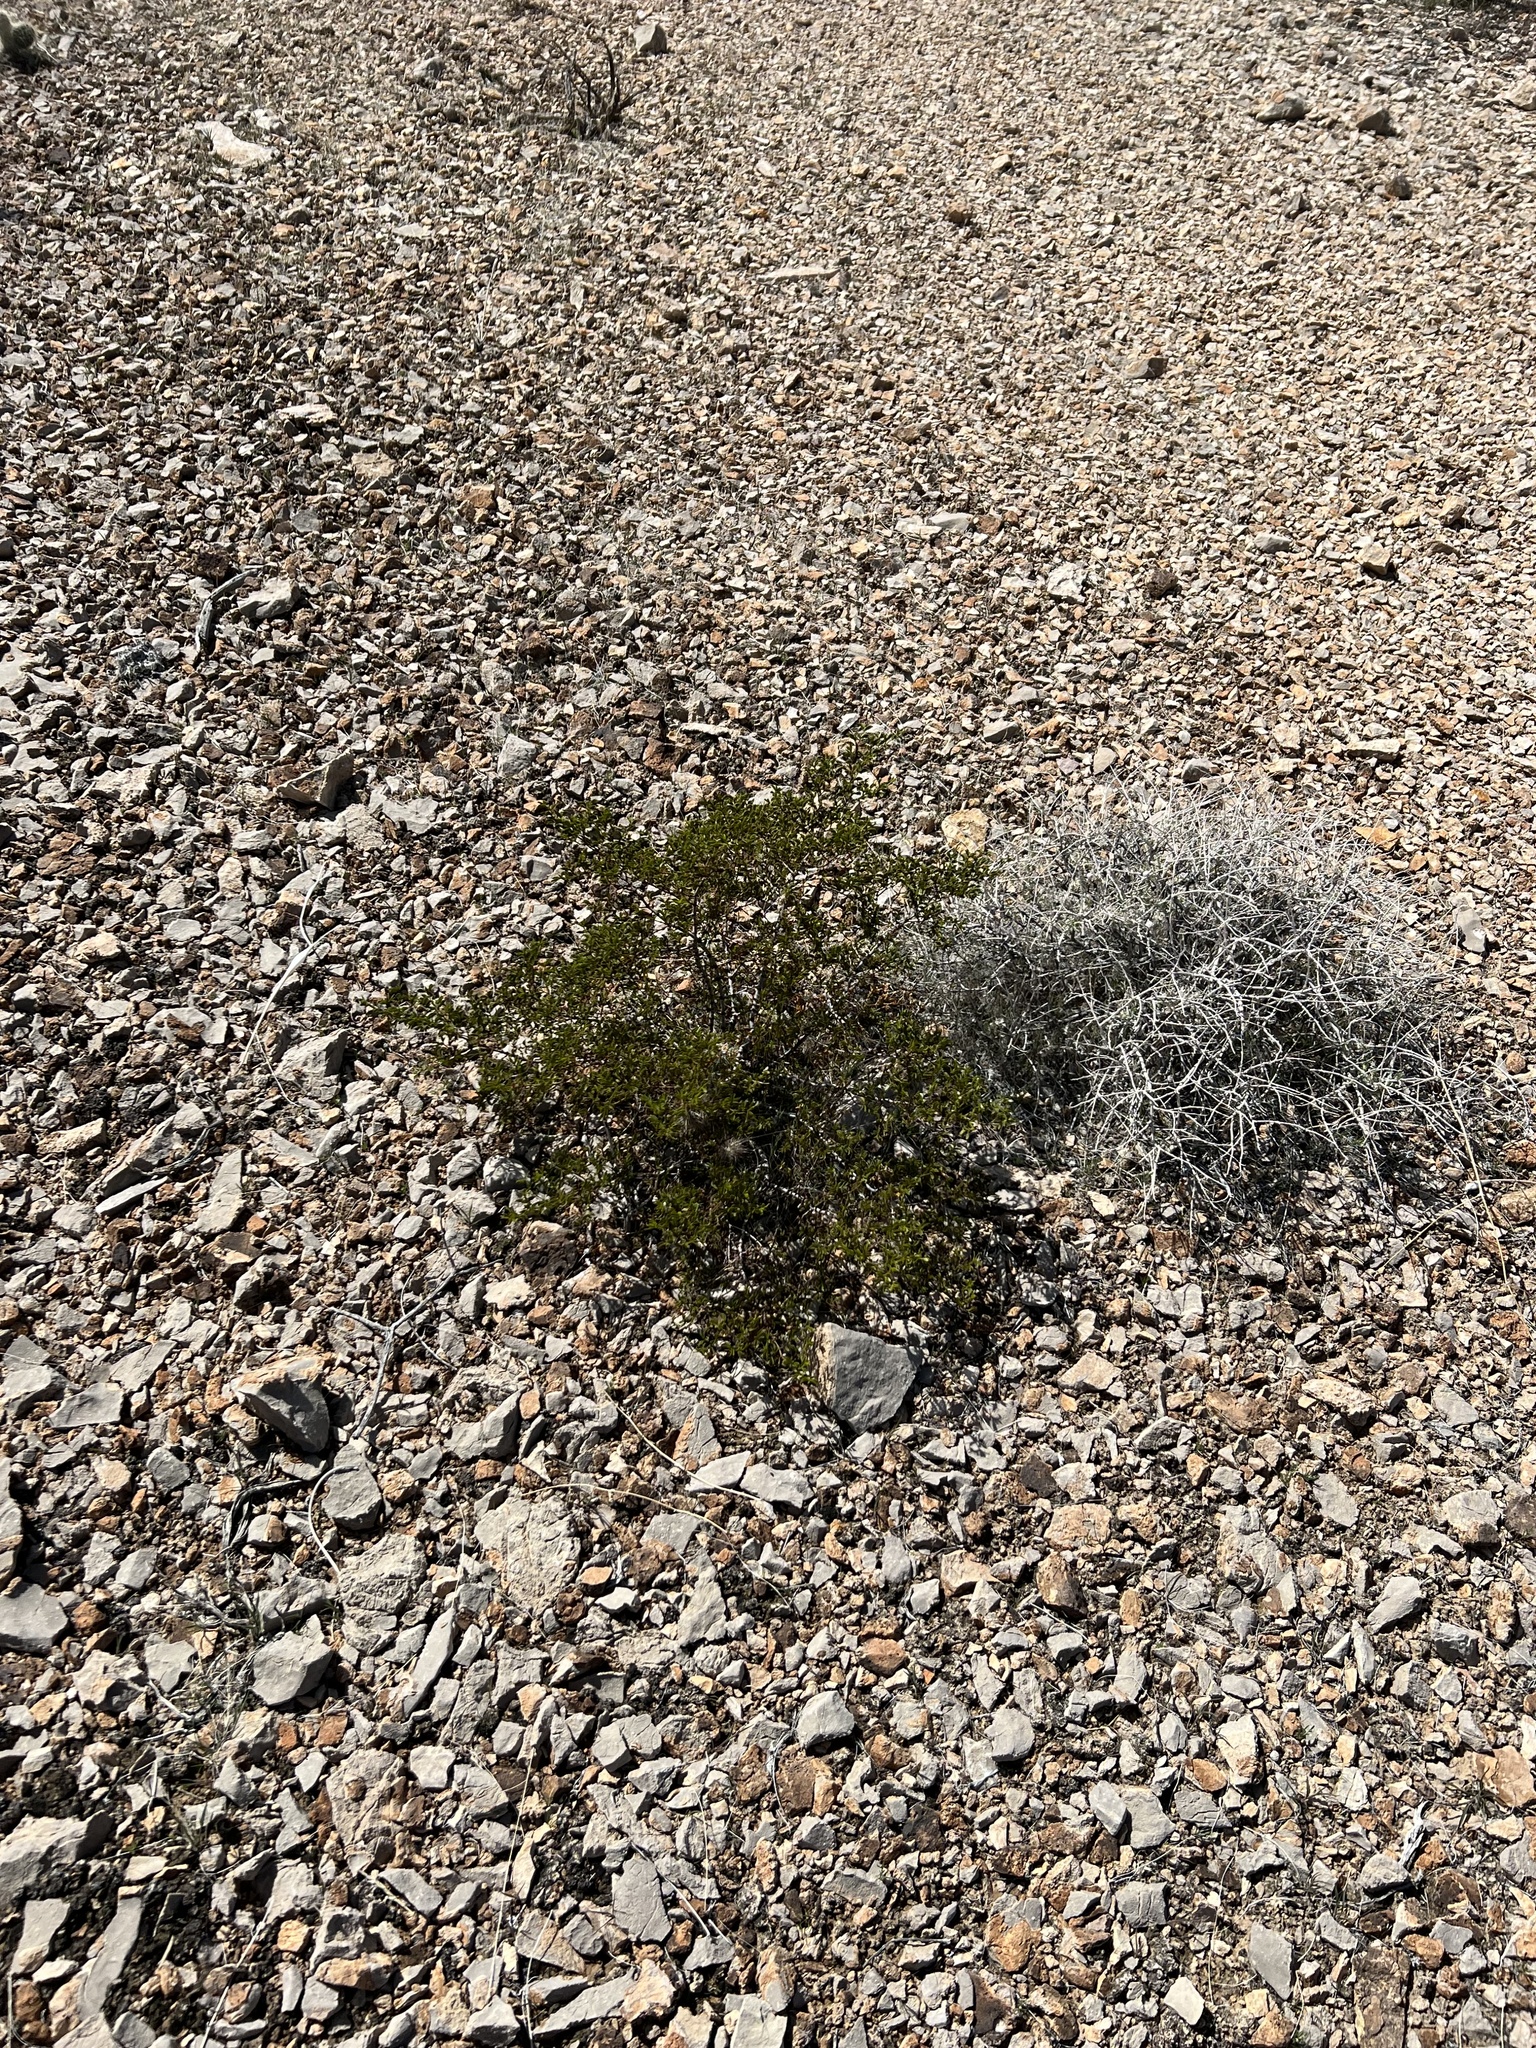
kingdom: Plantae
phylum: Tracheophyta
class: Magnoliopsida
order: Zygophyllales
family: Zygophyllaceae
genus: Larrea
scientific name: Larrea tridentata
